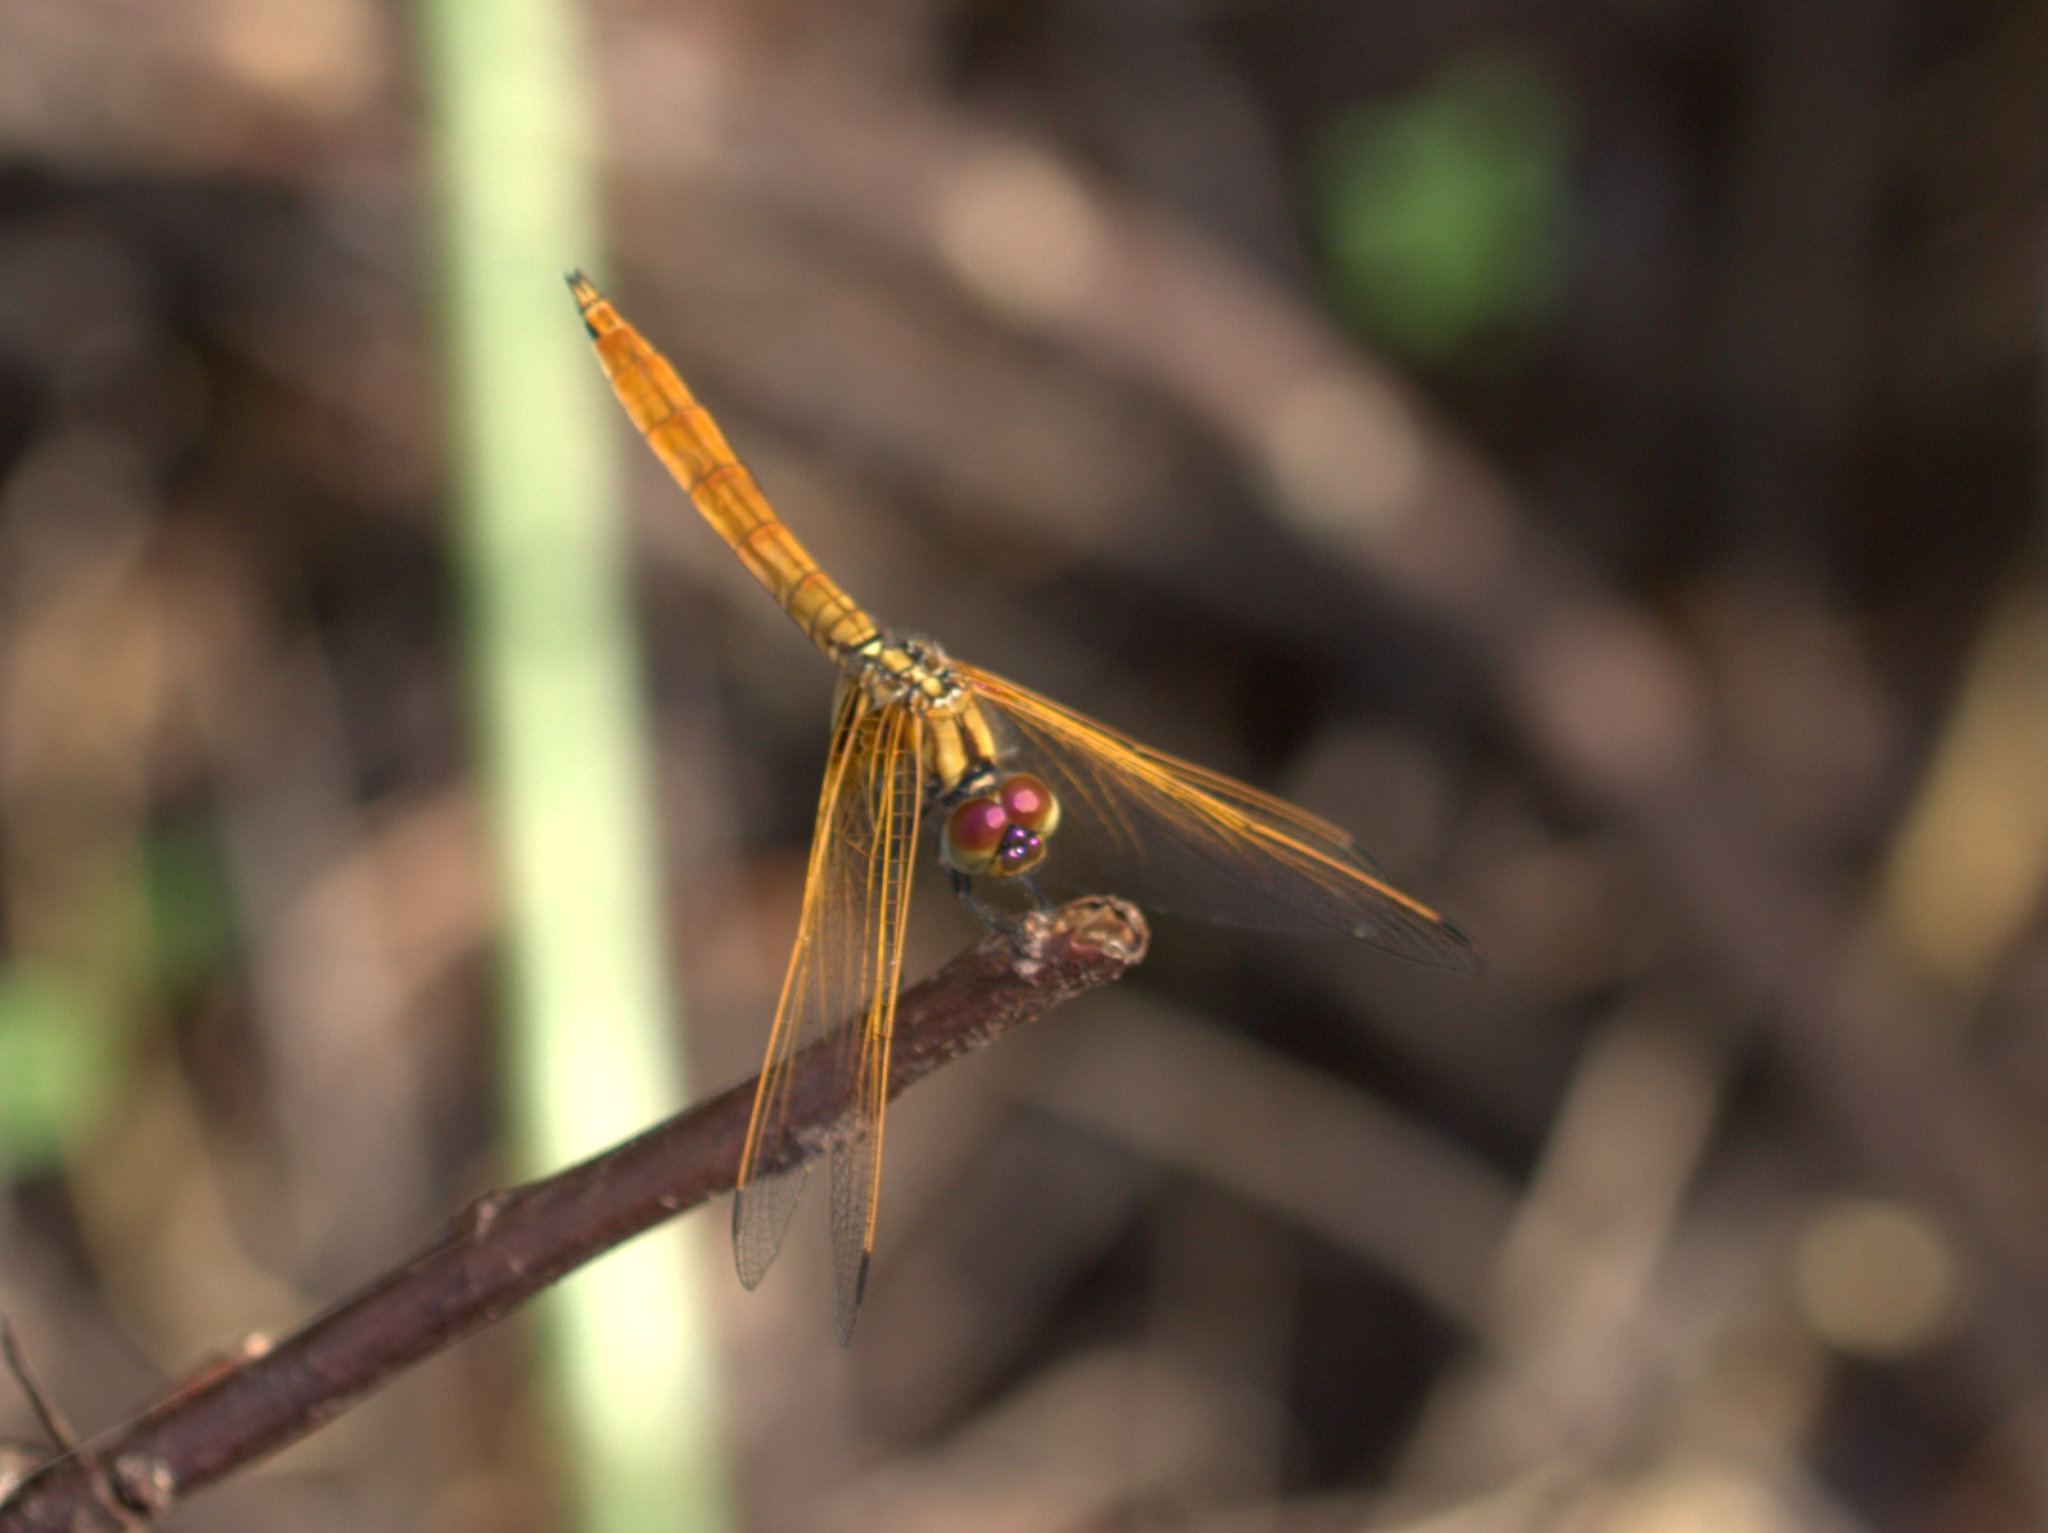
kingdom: Animalia
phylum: Arthropoda
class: Insecta
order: Odonata
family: Libellulidae
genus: Trithemis
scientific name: Trithemis aurora
